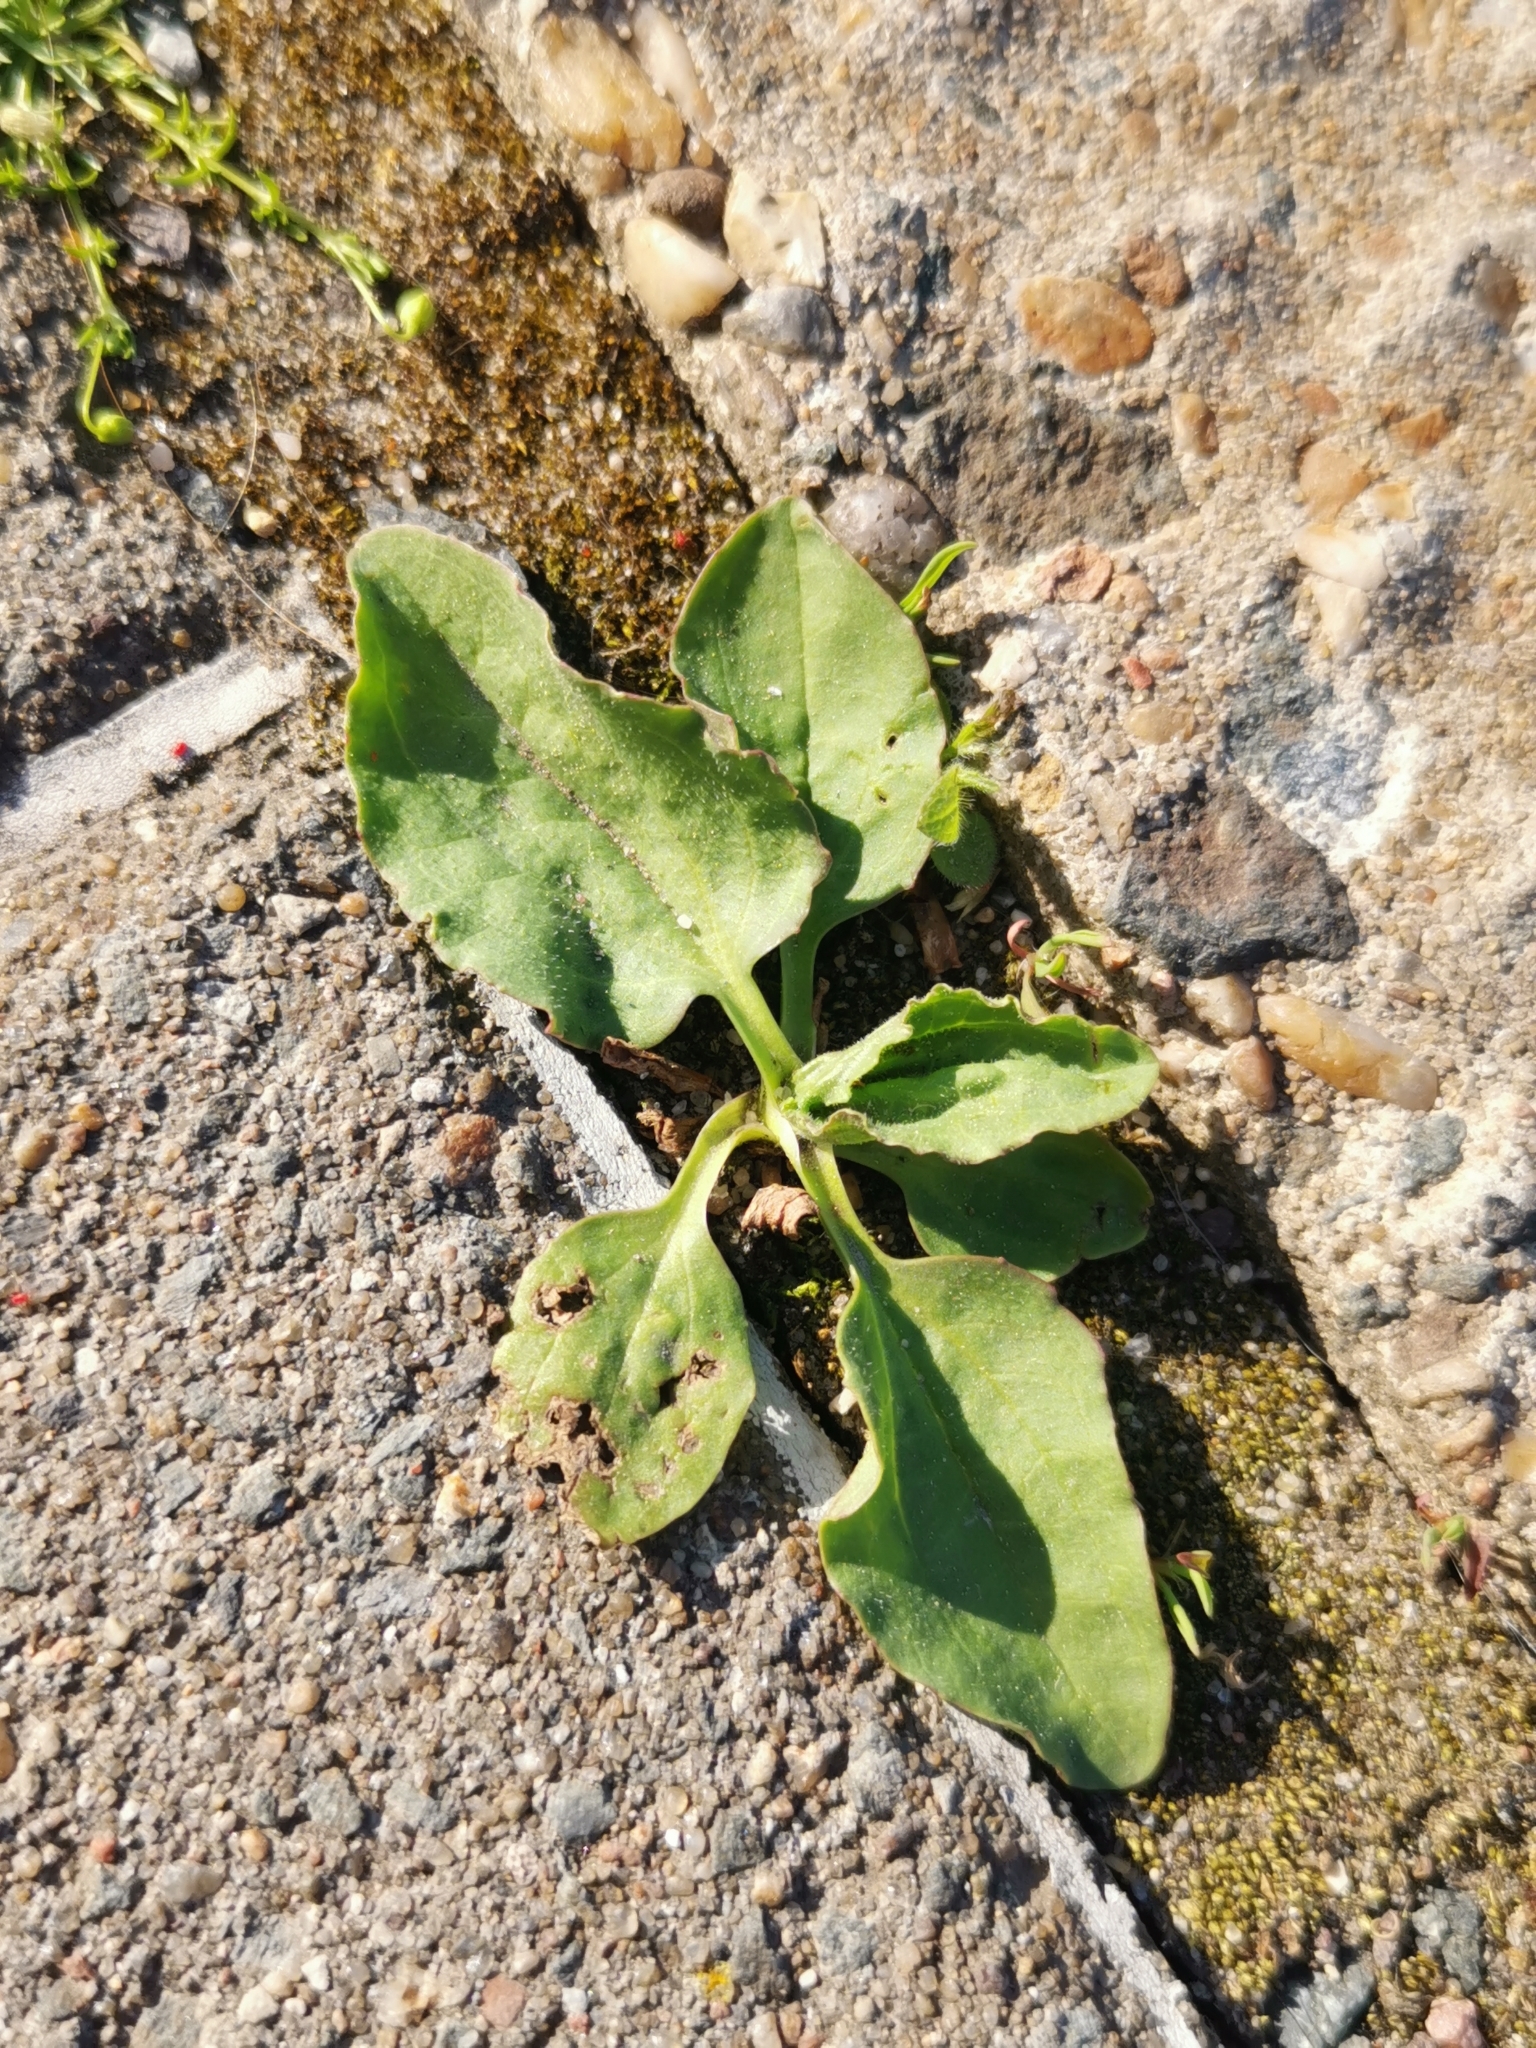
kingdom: Plantae
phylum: Tracheophyta
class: Magnoliopsida
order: Lamiales
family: Plantaginaceae
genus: Plantago
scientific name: Plantago major
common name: Common plantain
